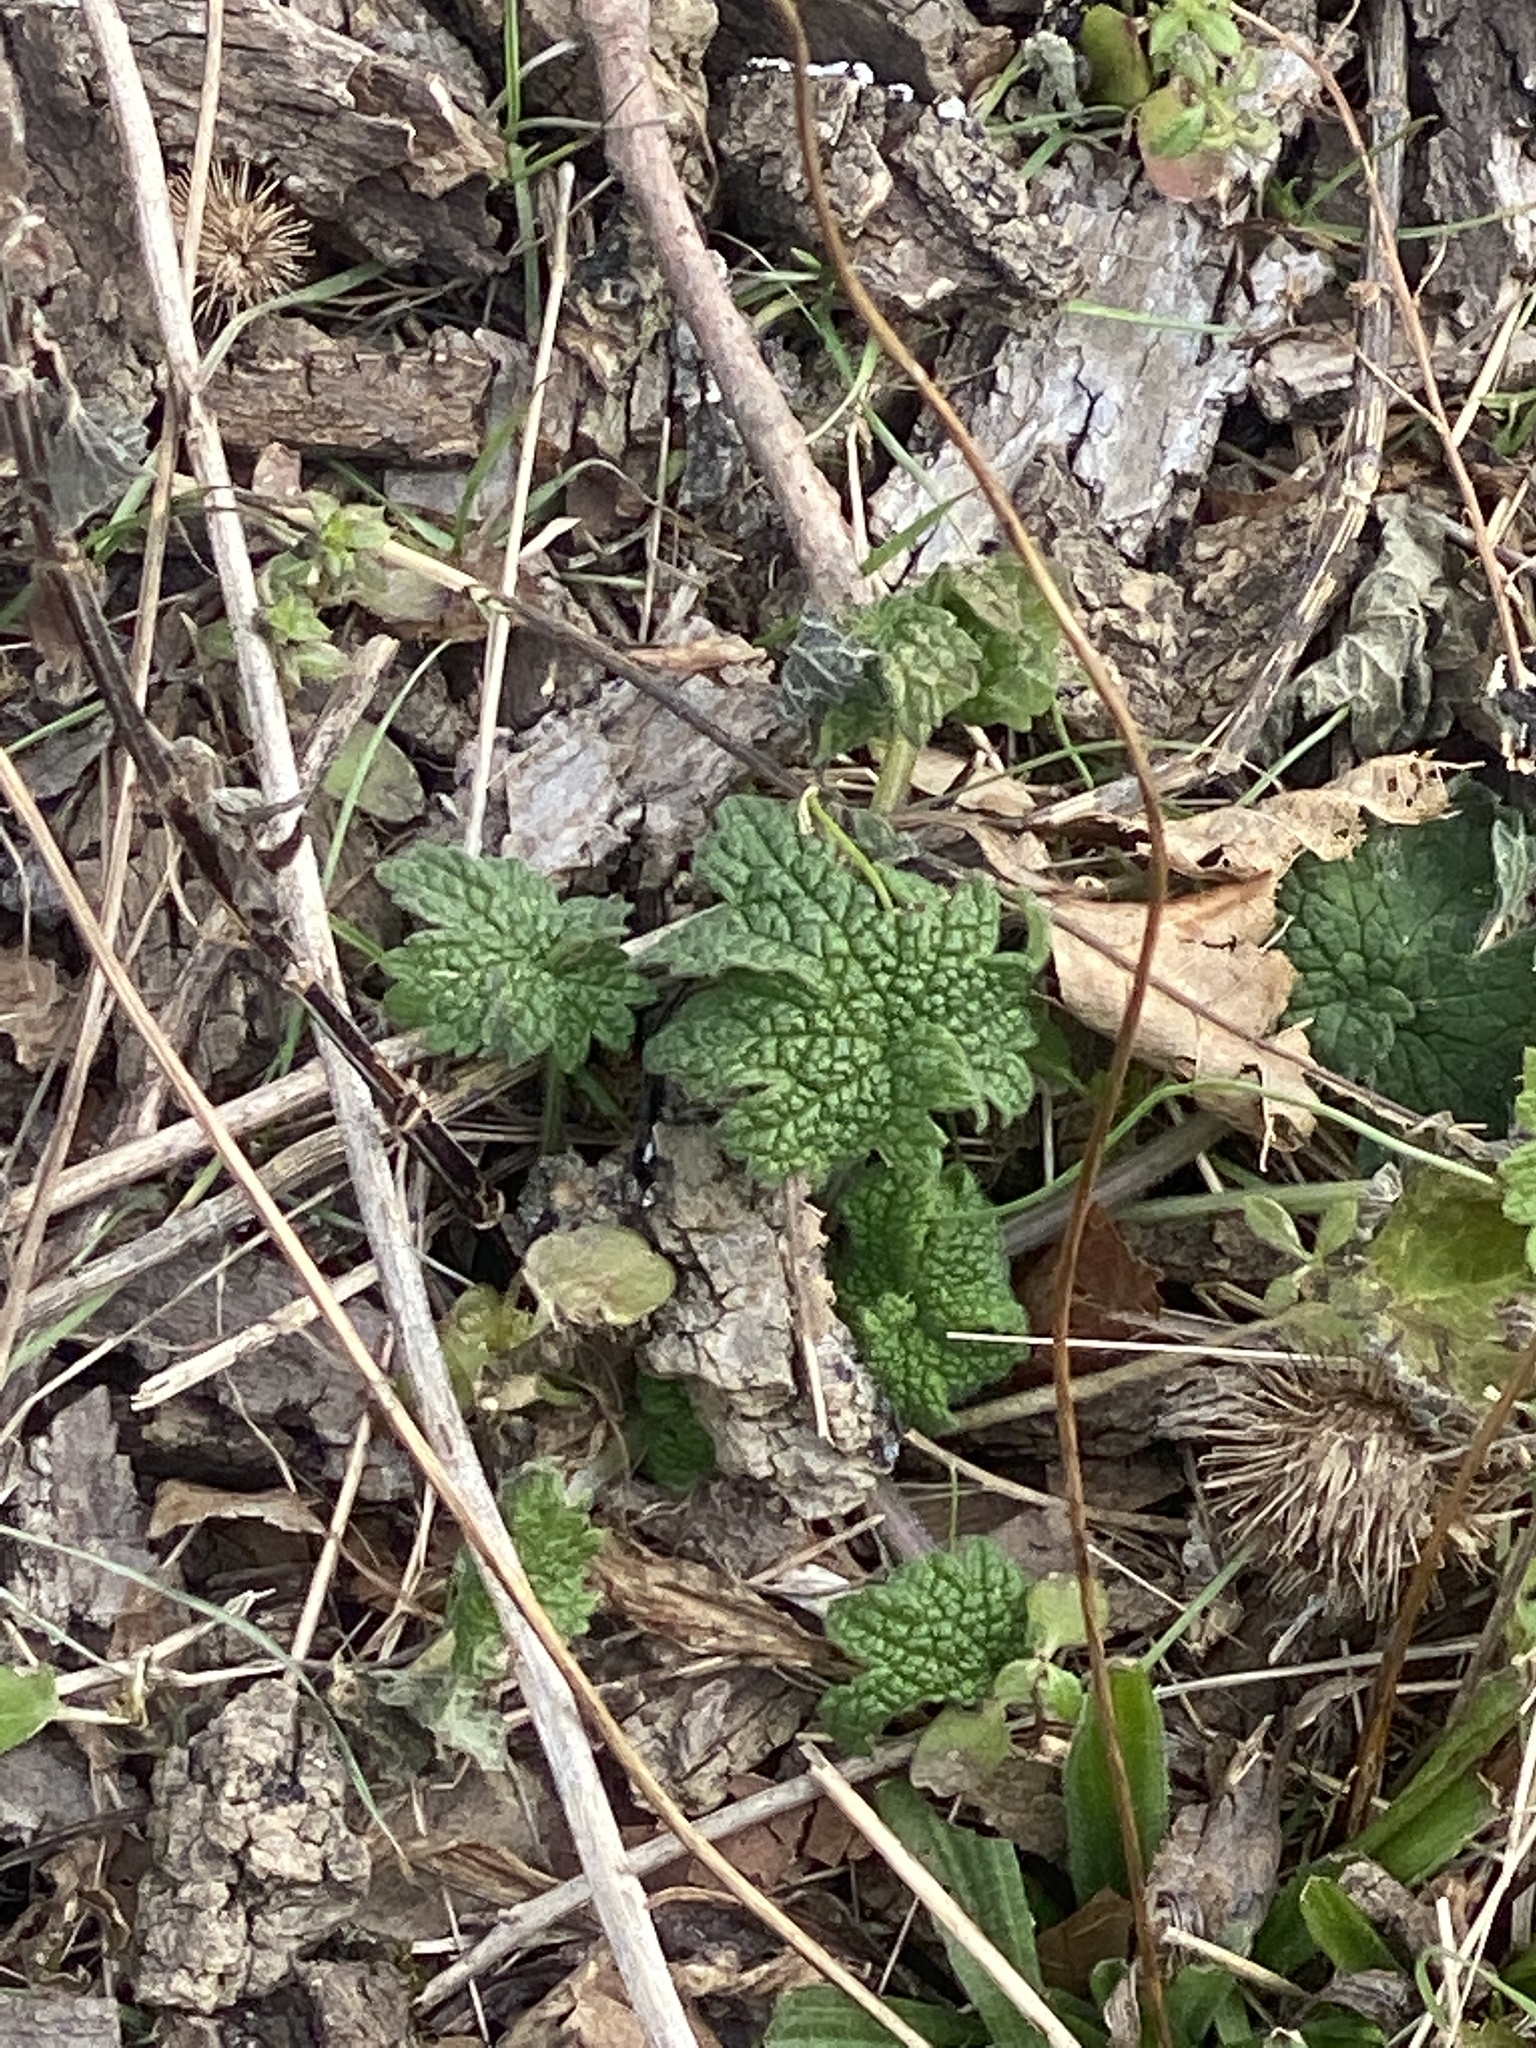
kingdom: Plantae
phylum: Tracheophyta
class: Magnoliopsida
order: Lamiales
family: Lamiaceae
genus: Leonurus
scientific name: Leonurus cardiaca
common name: Motherwort
